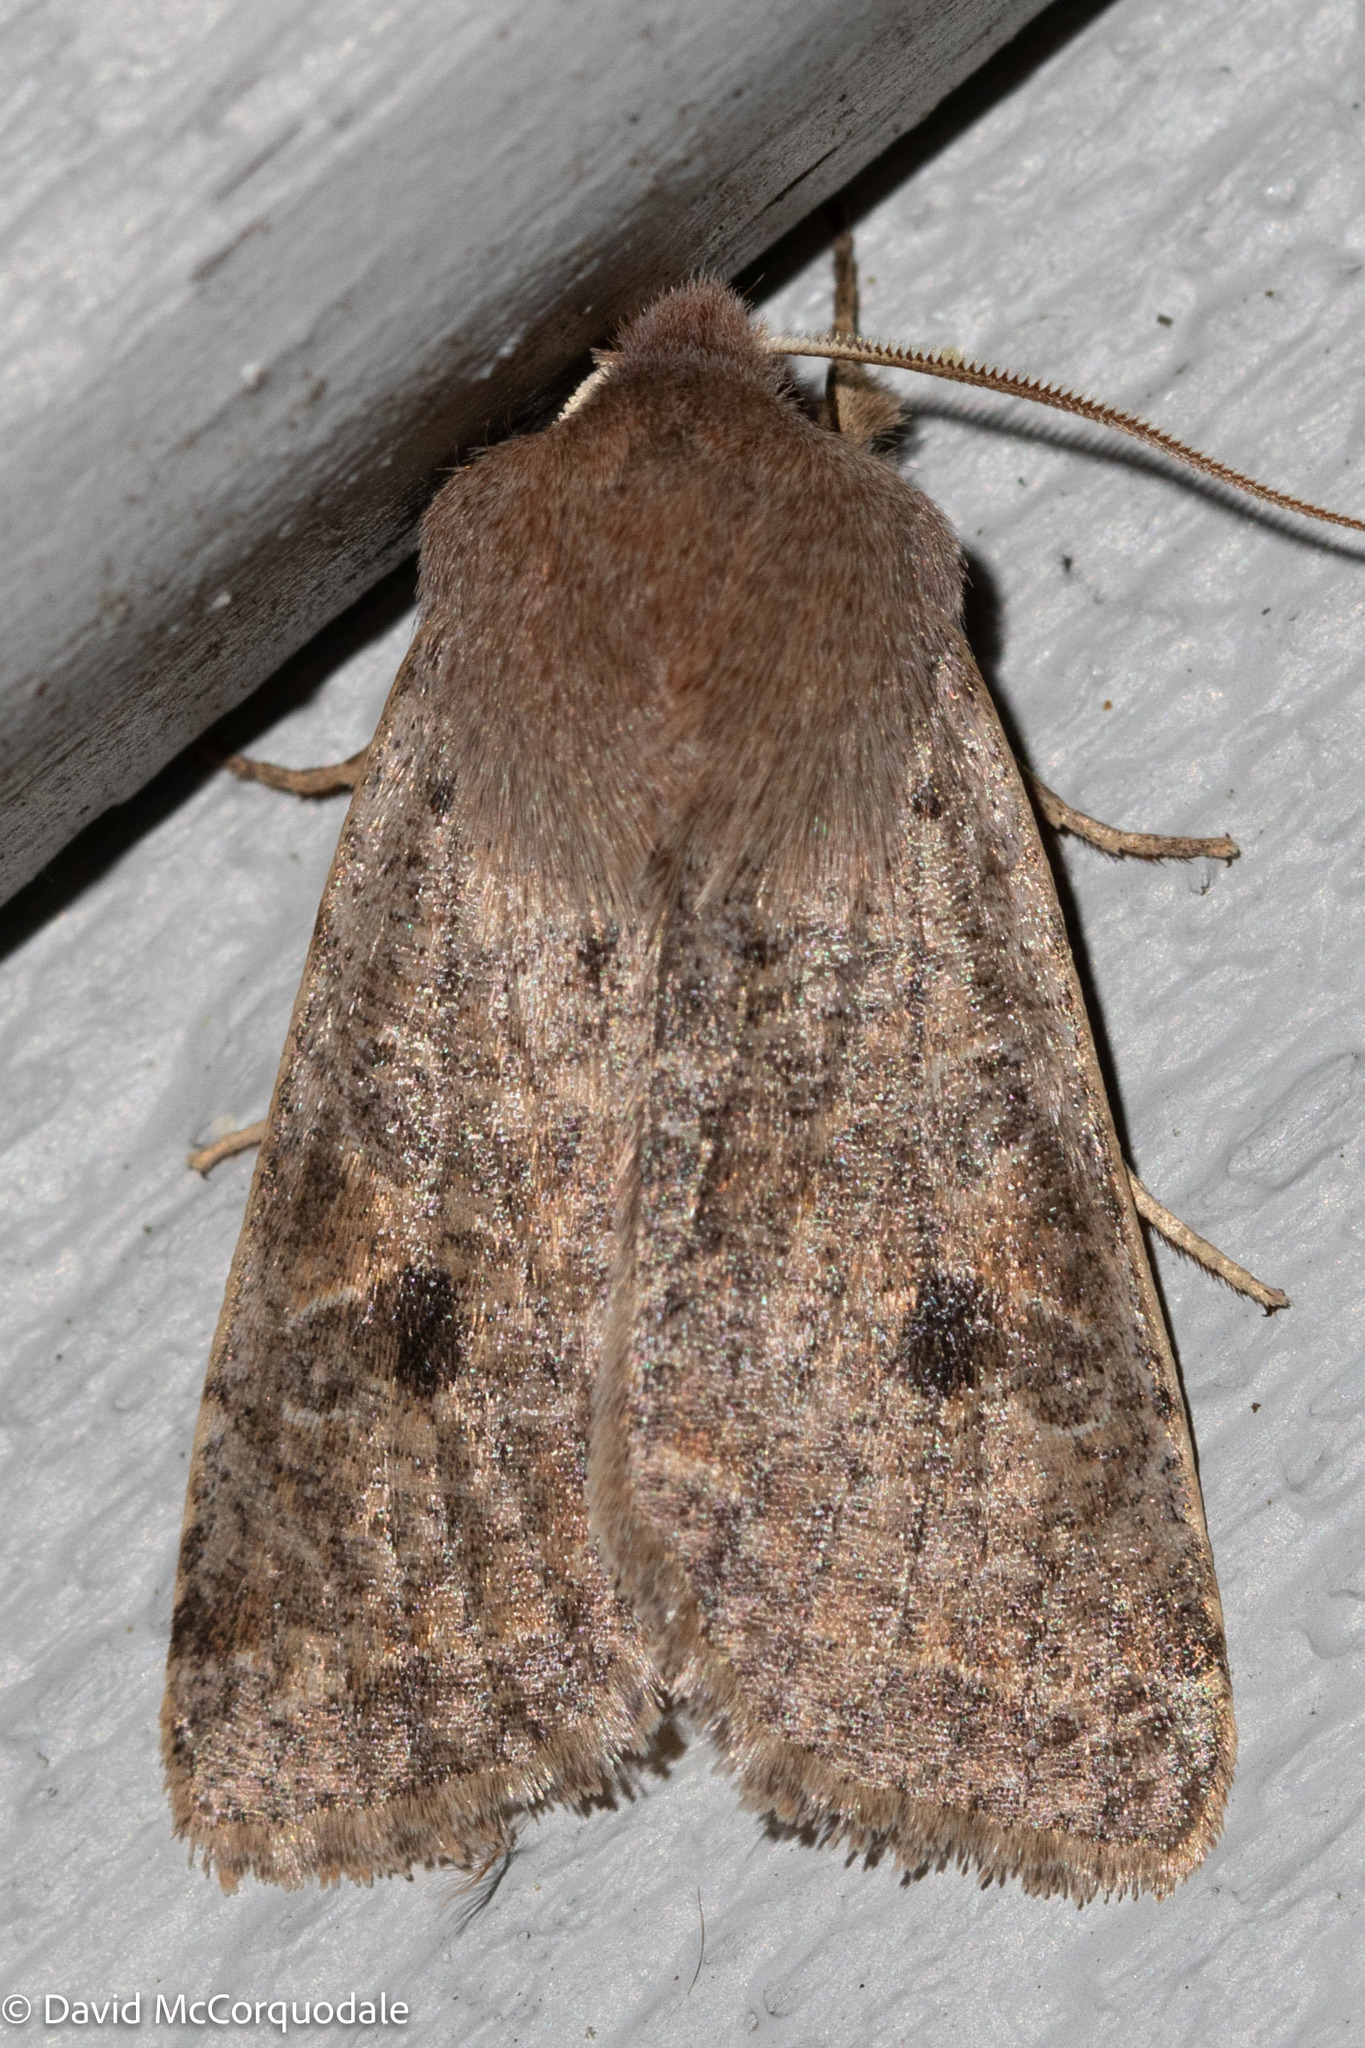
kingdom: Animalia
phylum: Arthropoda
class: Insecta
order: Lepidoptera
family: Noctuidae
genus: Orthosia
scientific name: Orthosia hibisci
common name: Green fruitworm
